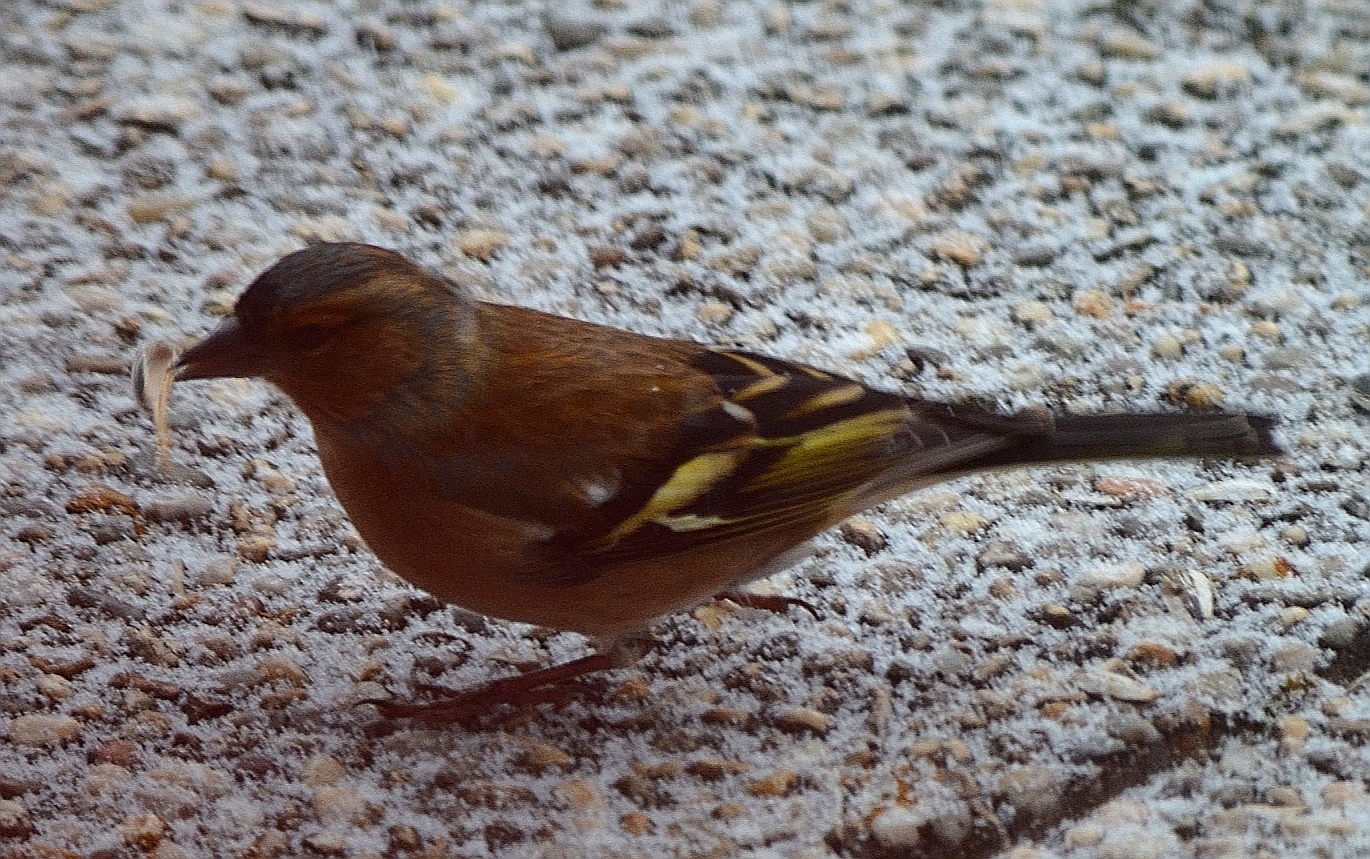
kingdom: Animalia
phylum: Chordata
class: Aves
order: Passeriformes
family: Fringillidae
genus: Fringilla
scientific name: Fringilla coelebs
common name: Common chaffinch
